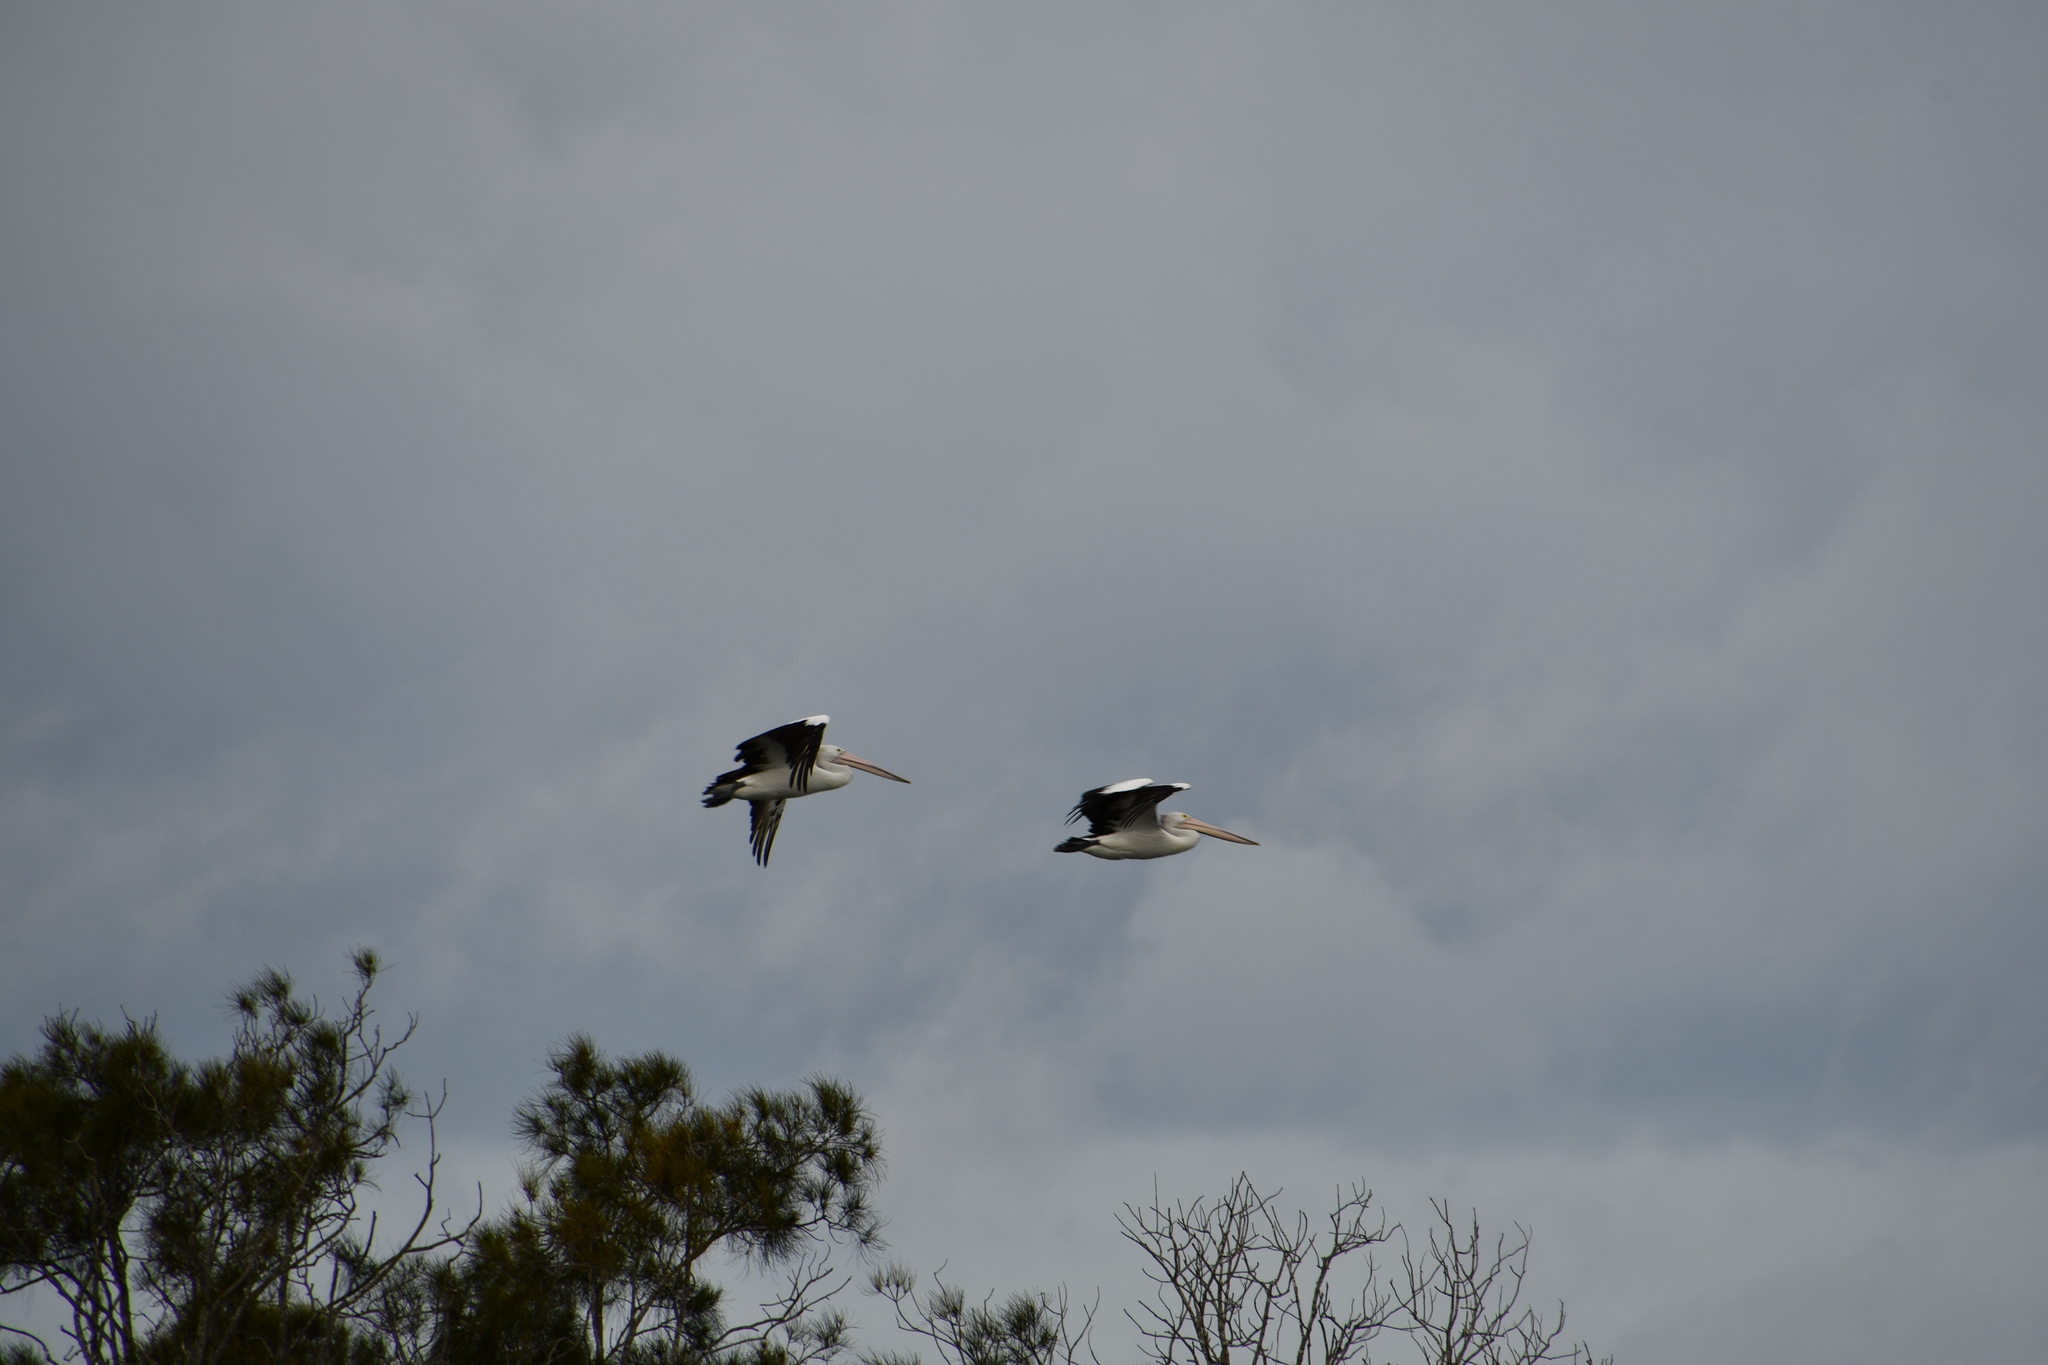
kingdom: Animalia
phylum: Chordata
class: Aves
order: Pelecaniformes
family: Pelecanidae
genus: Pelecanus
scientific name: Pelecanus conspicillatus
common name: Australian pelican
